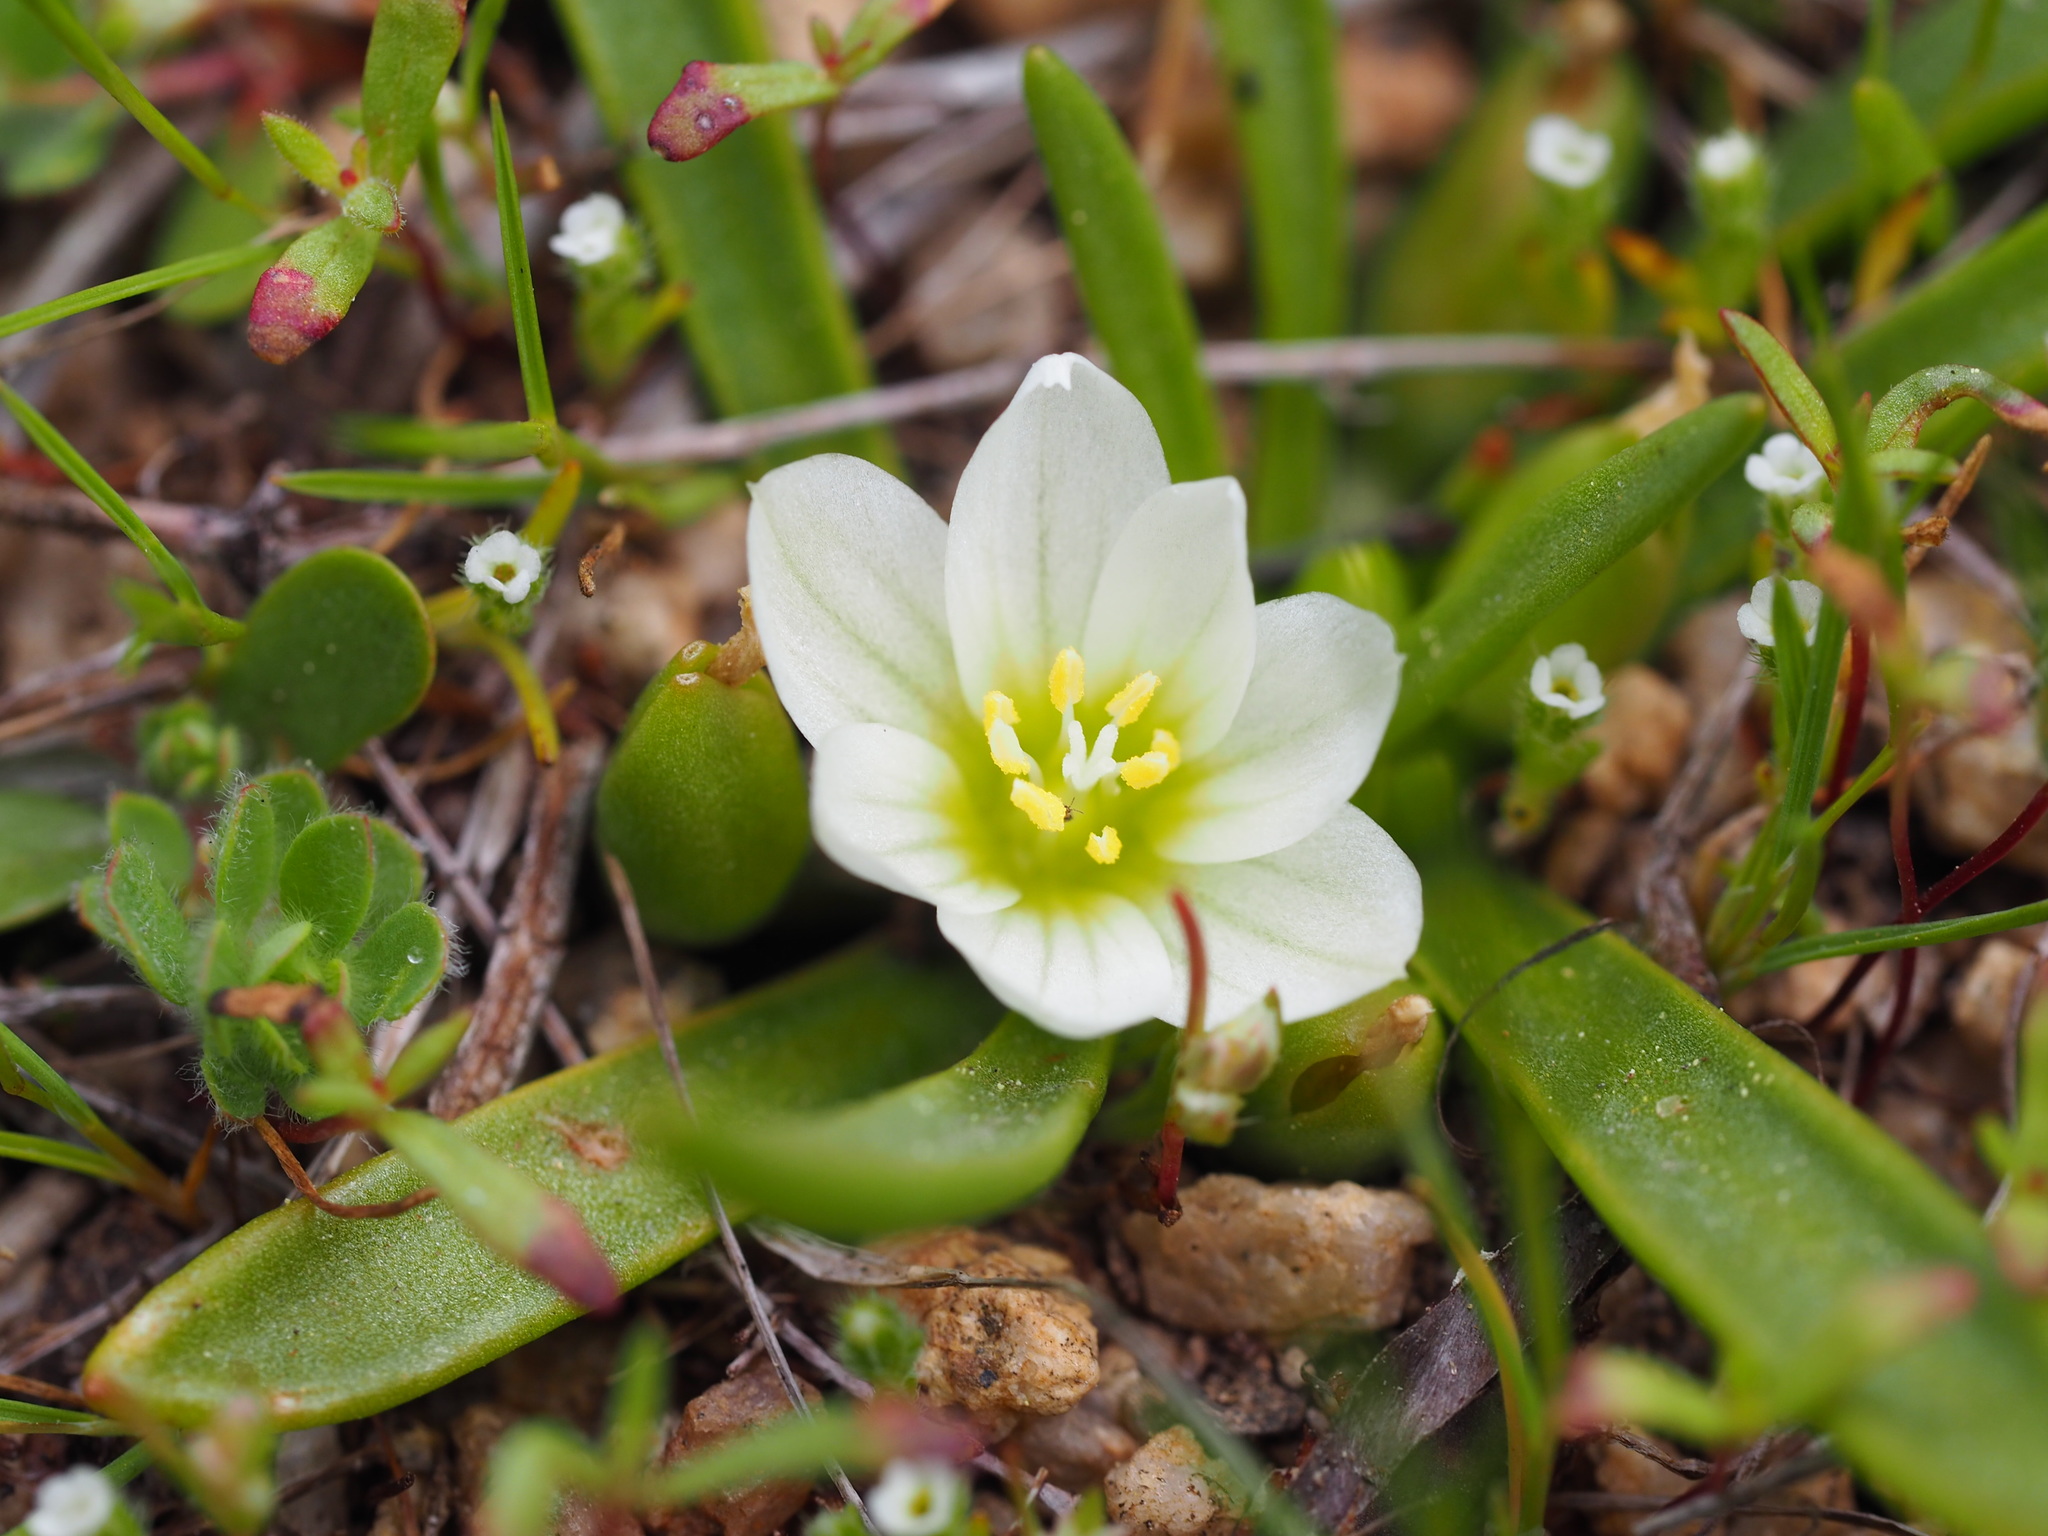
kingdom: Plantae
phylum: Tracheophyta
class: Magnoliopsida
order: Caryophyllales
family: Montiaceae
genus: Lewisia
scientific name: Lewisia nevadensis
